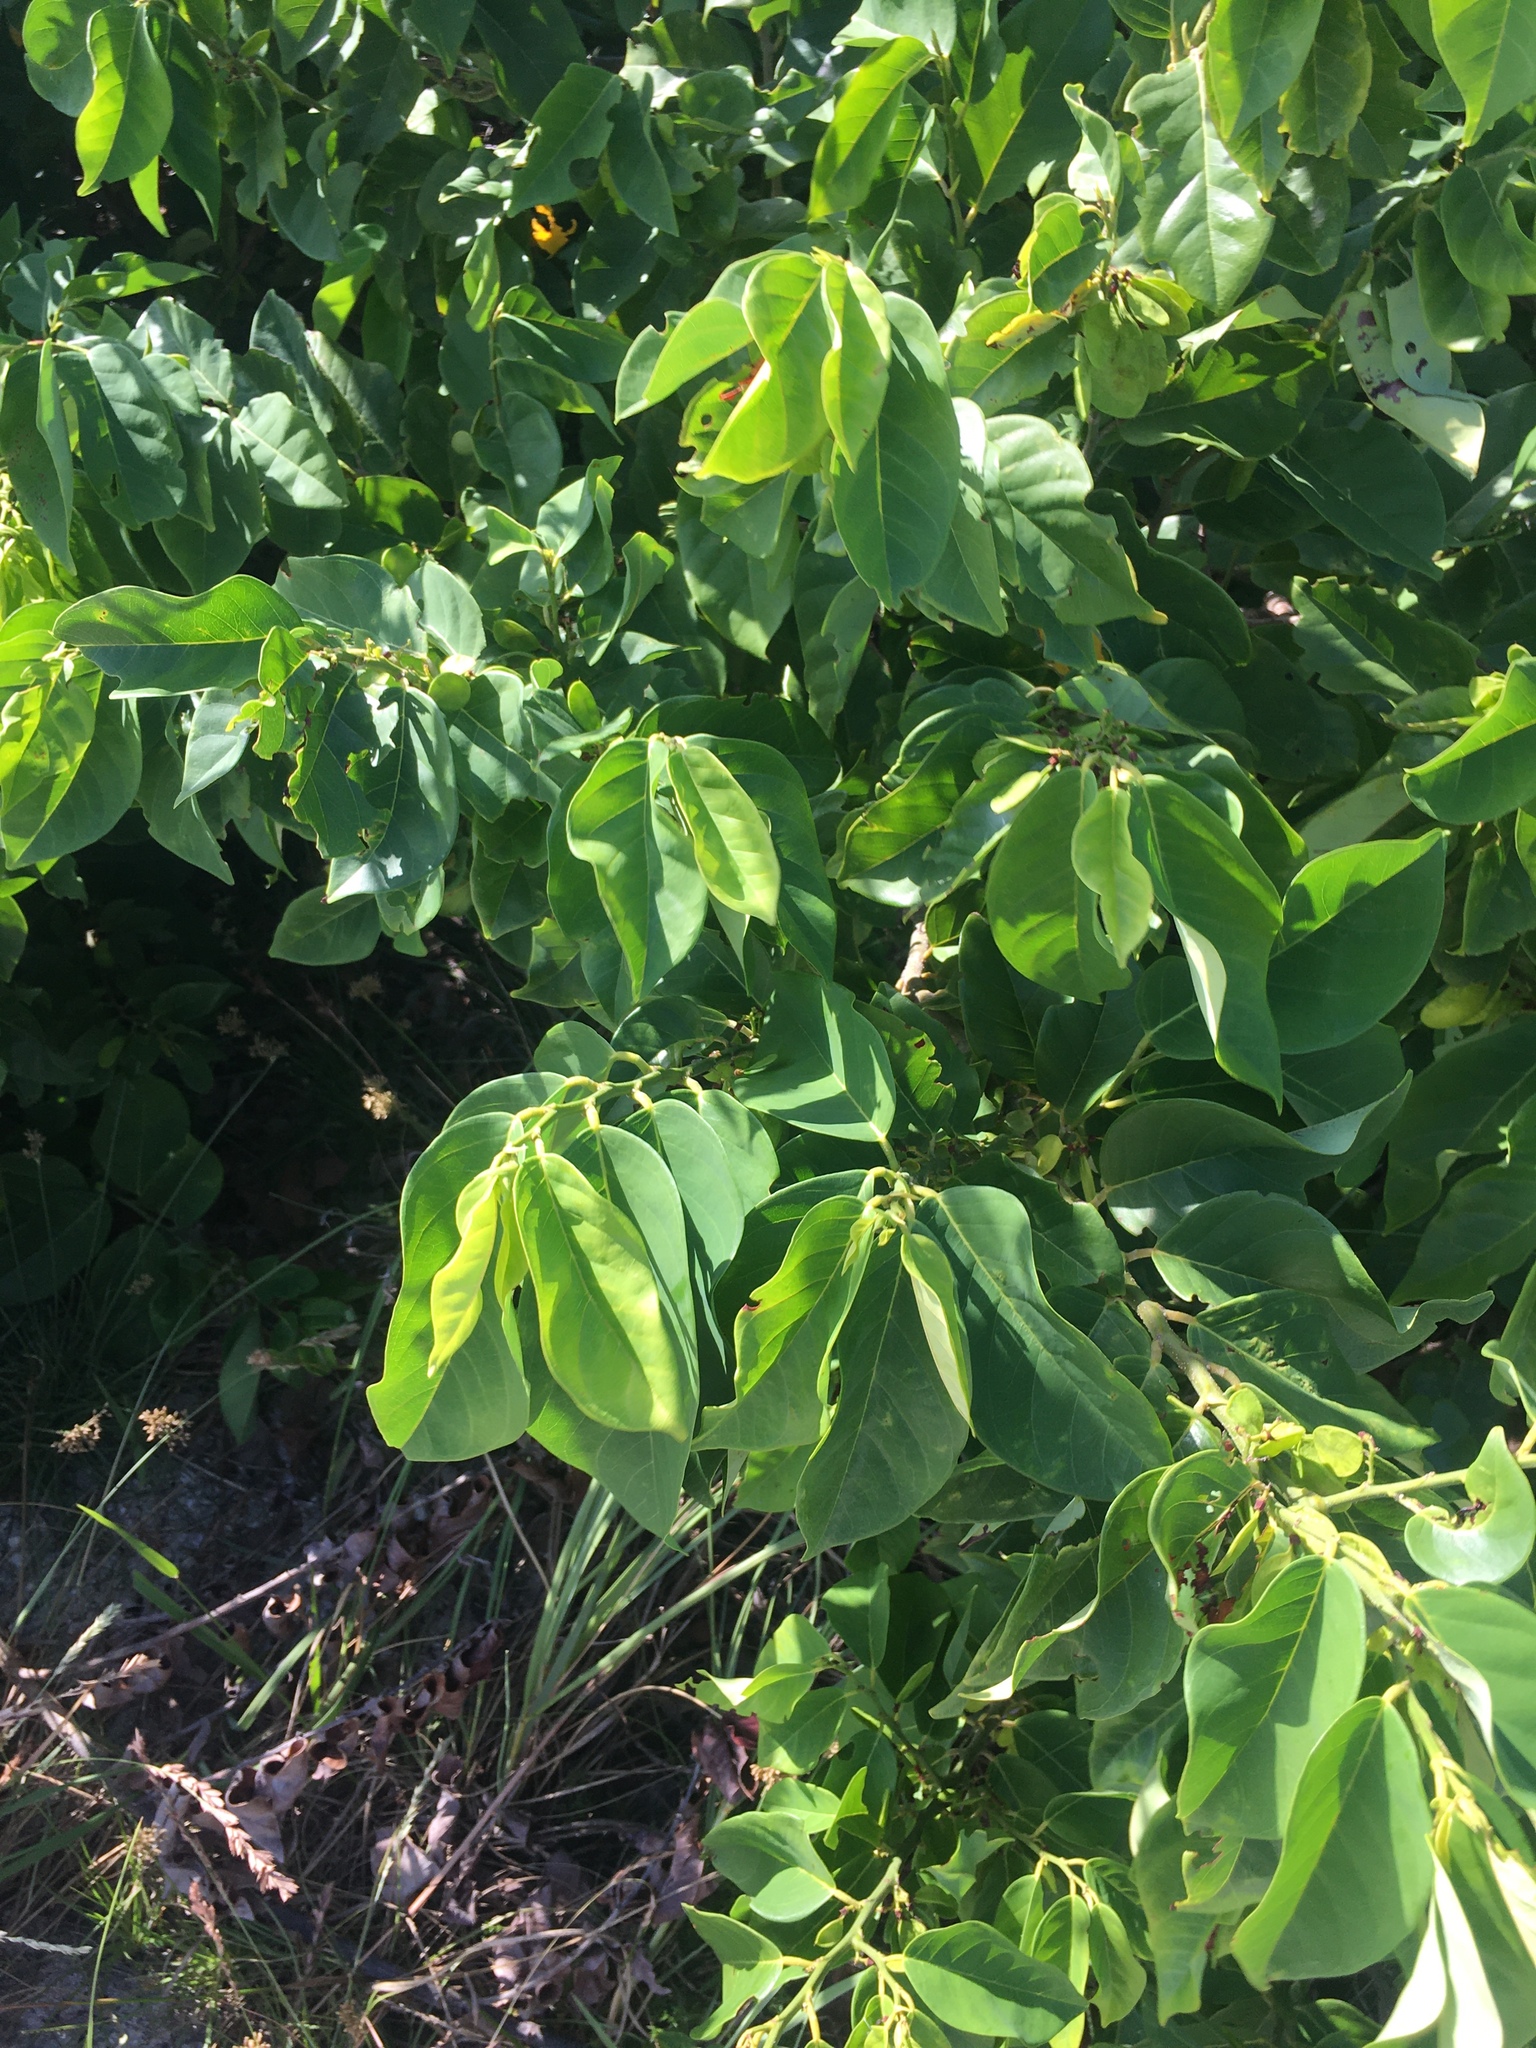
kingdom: Plantae
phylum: Tracheophyta
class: Magnoliopsida
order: Fabales
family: Fabaceae
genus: Dalbergia
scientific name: Dalbergia ecastaphyllum
